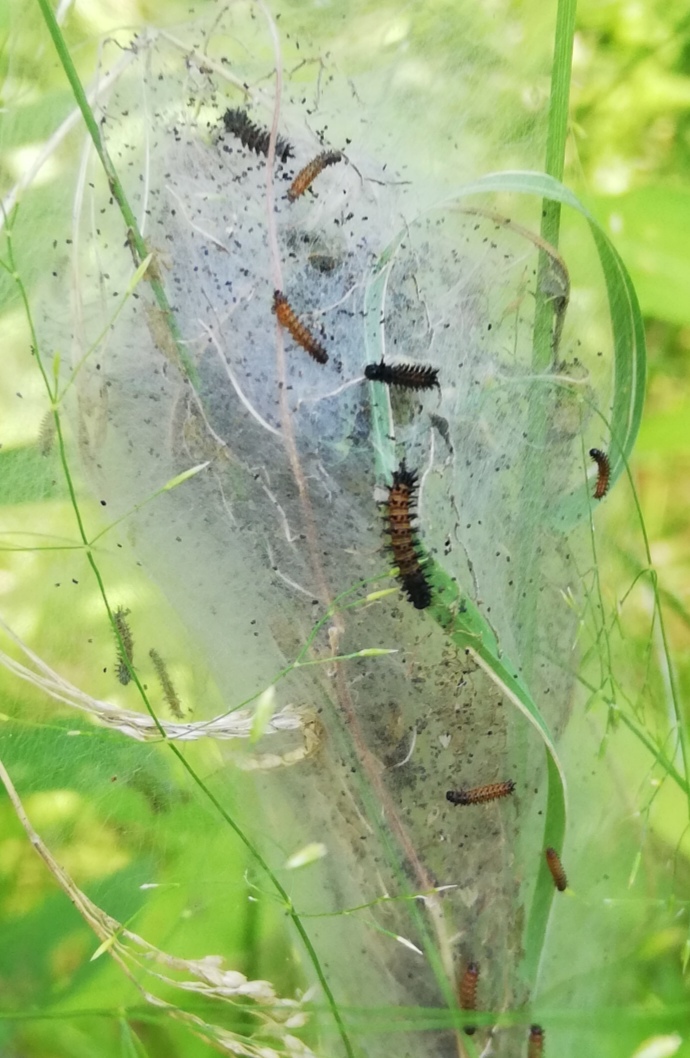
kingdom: Animalia
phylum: Arthropoda
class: Insecta
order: Lepidoptera
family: Nymphalidae
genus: Euphydryas
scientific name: Euphydryas phaeton
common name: Baltimore checkerspot
